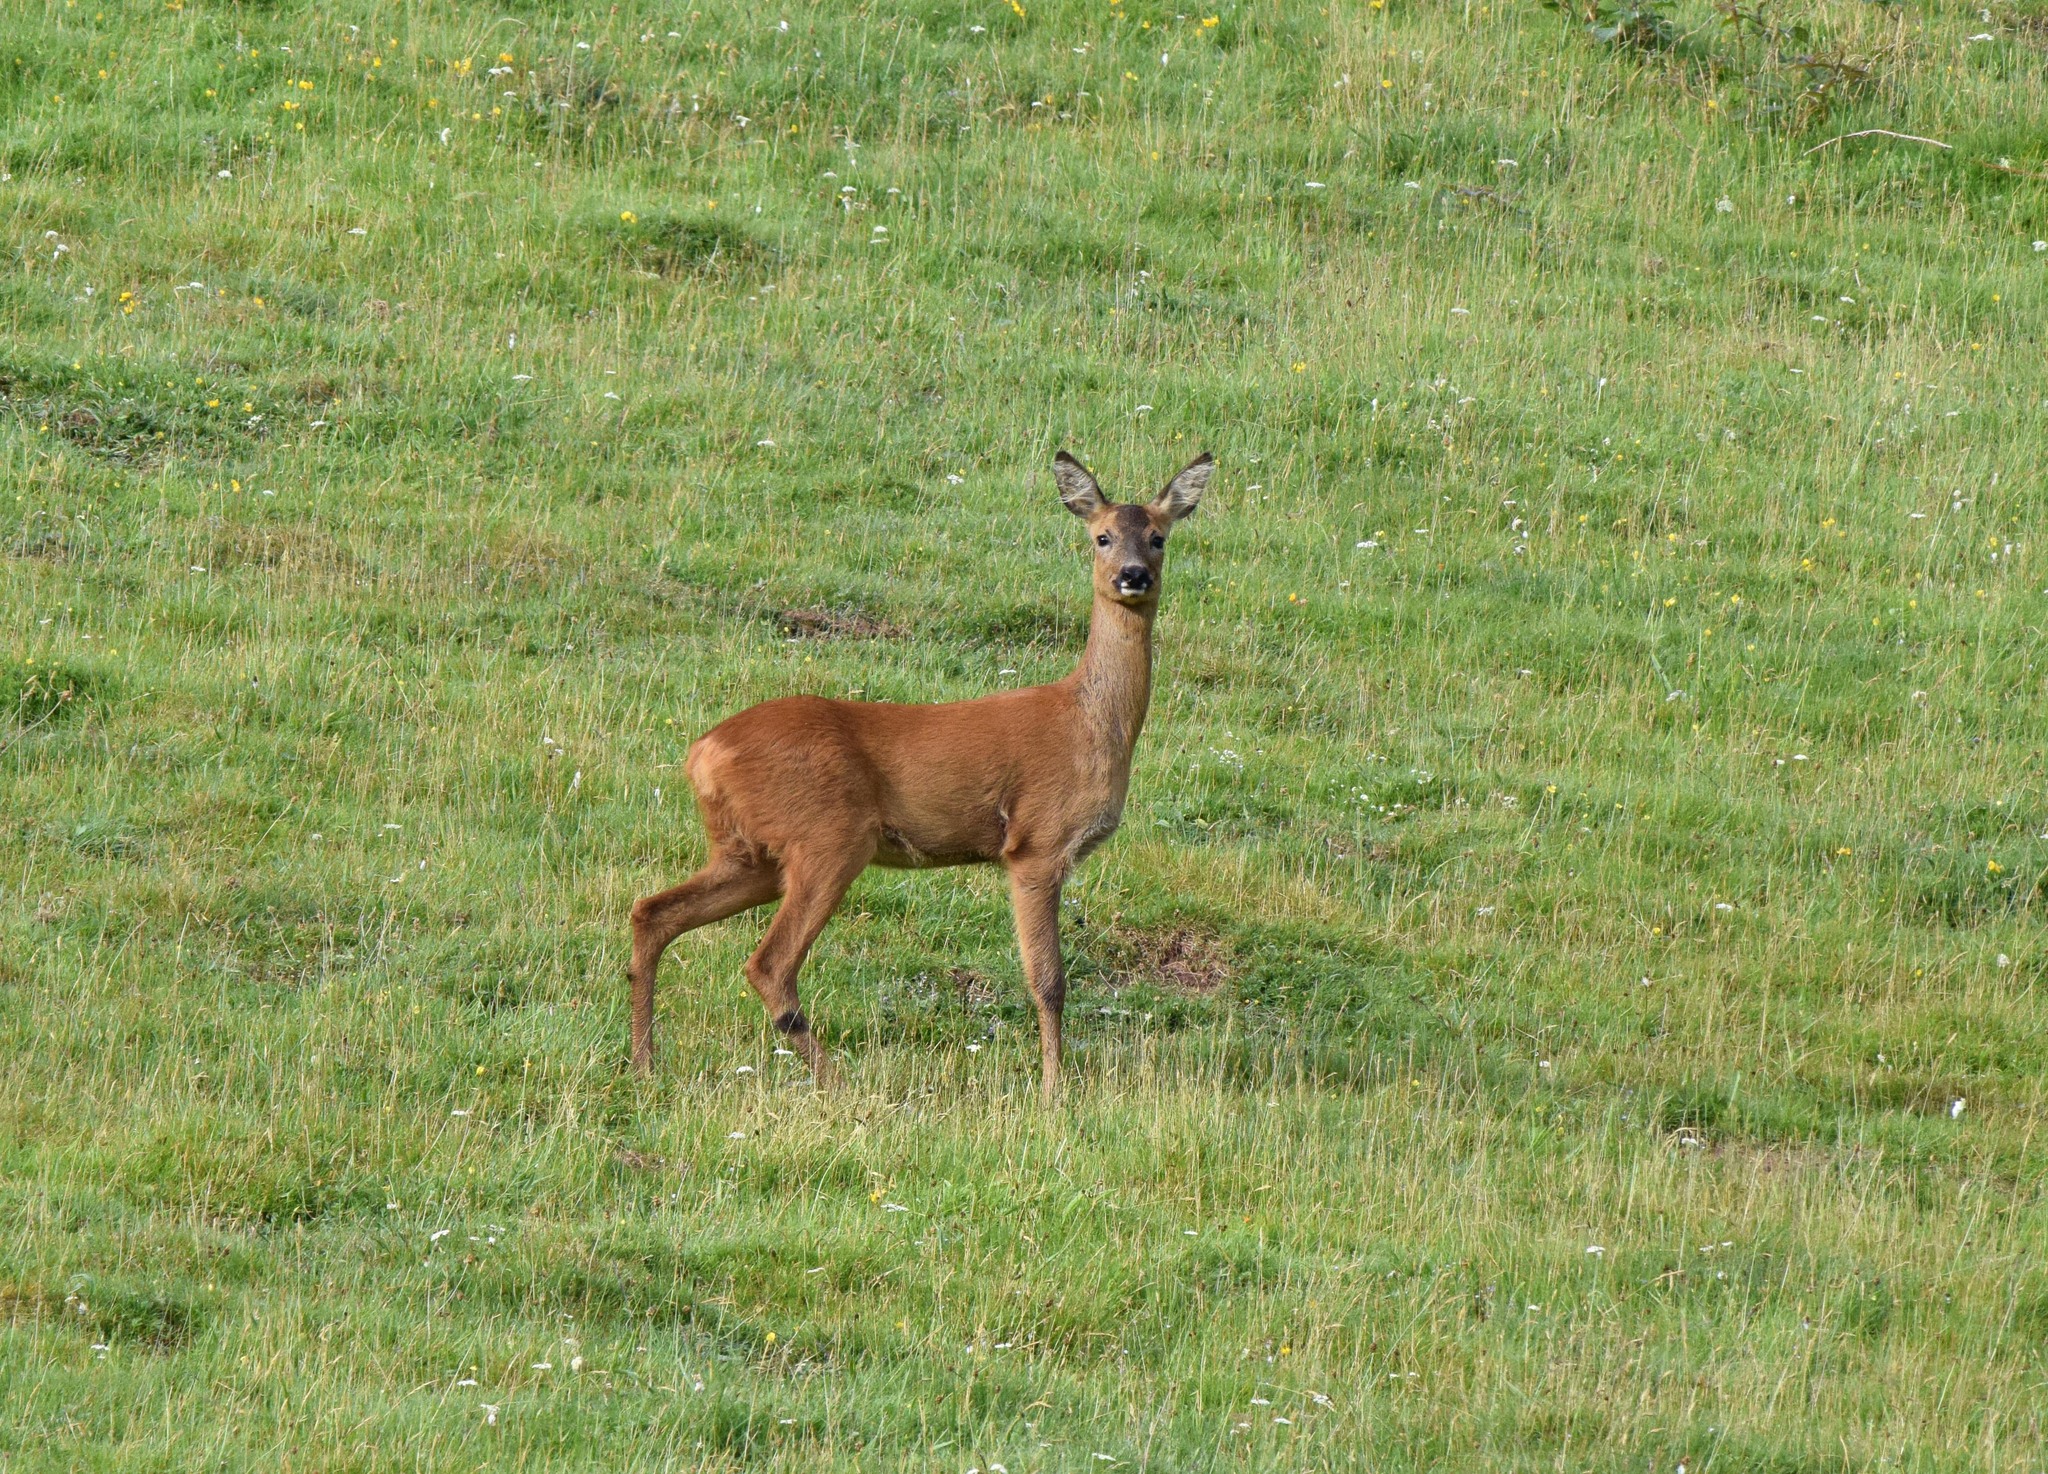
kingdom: Animalia
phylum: Chordata
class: Mammalia
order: Artiodactyla
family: Cervidae
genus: Capreolus
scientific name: Capreolus capreolus
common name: Western roe deer
